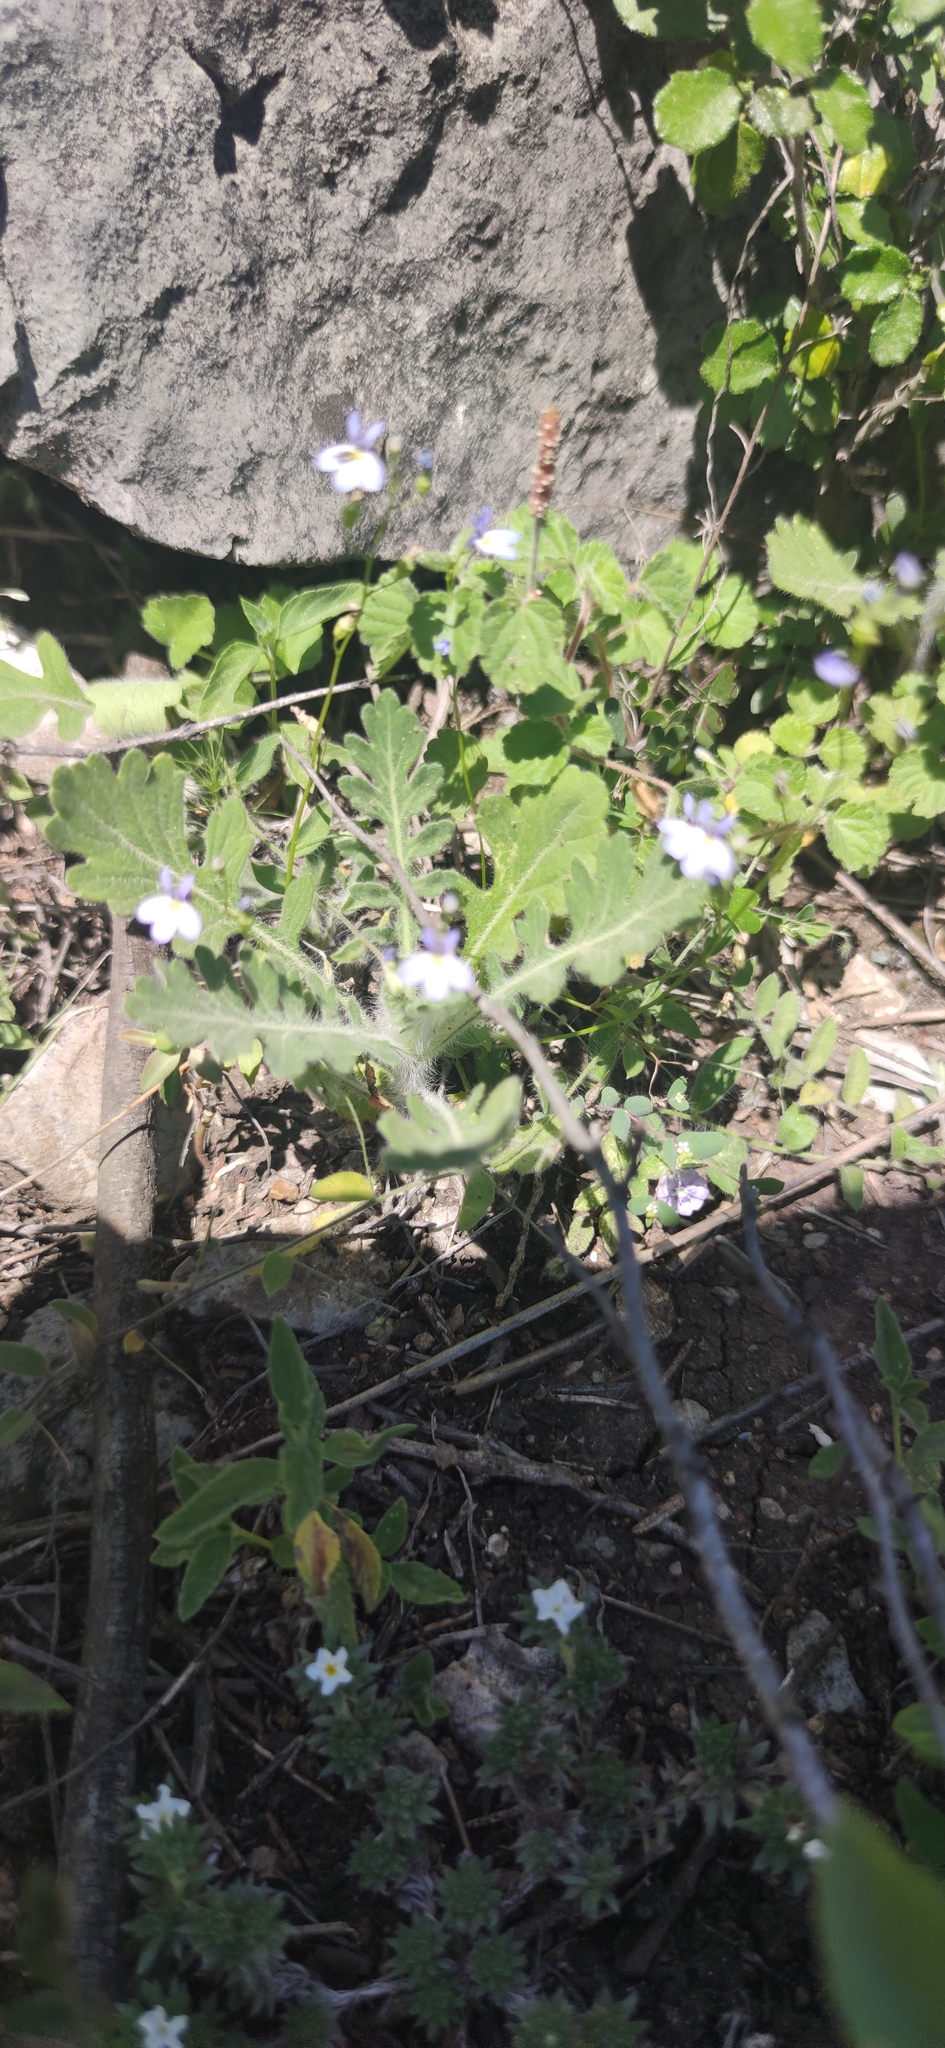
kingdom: Plantae
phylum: Tracheophyta
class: Magnoliopsida
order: Asterales
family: Campanulaceae
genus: Lobelia
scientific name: Lobelia berlandieri
